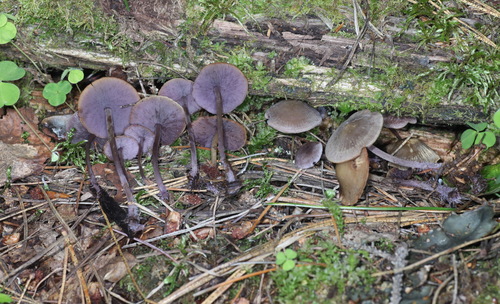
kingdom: Fungi
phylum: Basidiomycota
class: Agaricomycetes
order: Agaricales
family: Marasmiaceae
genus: Baeospora
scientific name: Baeospora myriadophylla
